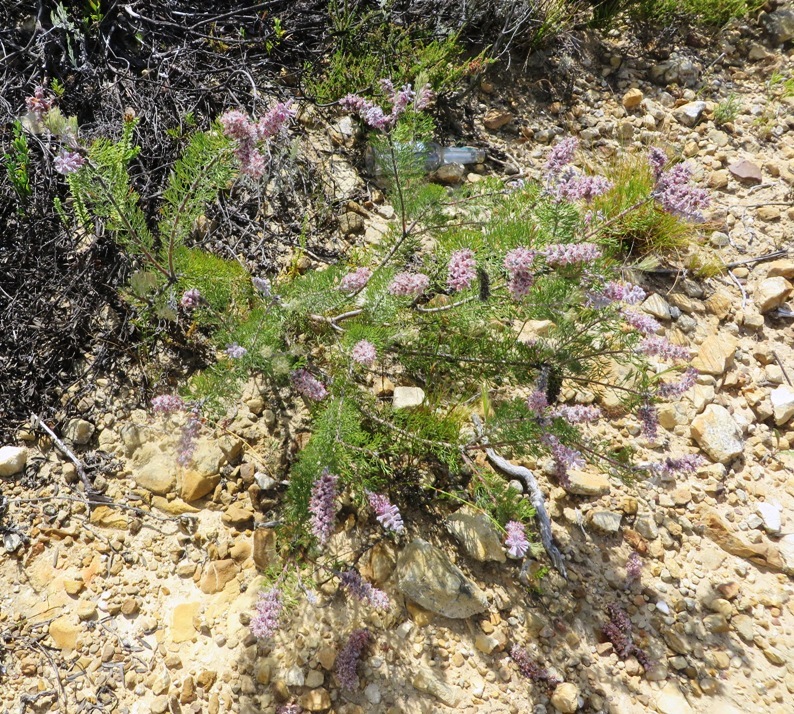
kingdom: Plantae
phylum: Tracheophyta
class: Magnoliopsida
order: Proteales
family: Proteaceae
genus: Paranomus
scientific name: Paranomus lagopus
